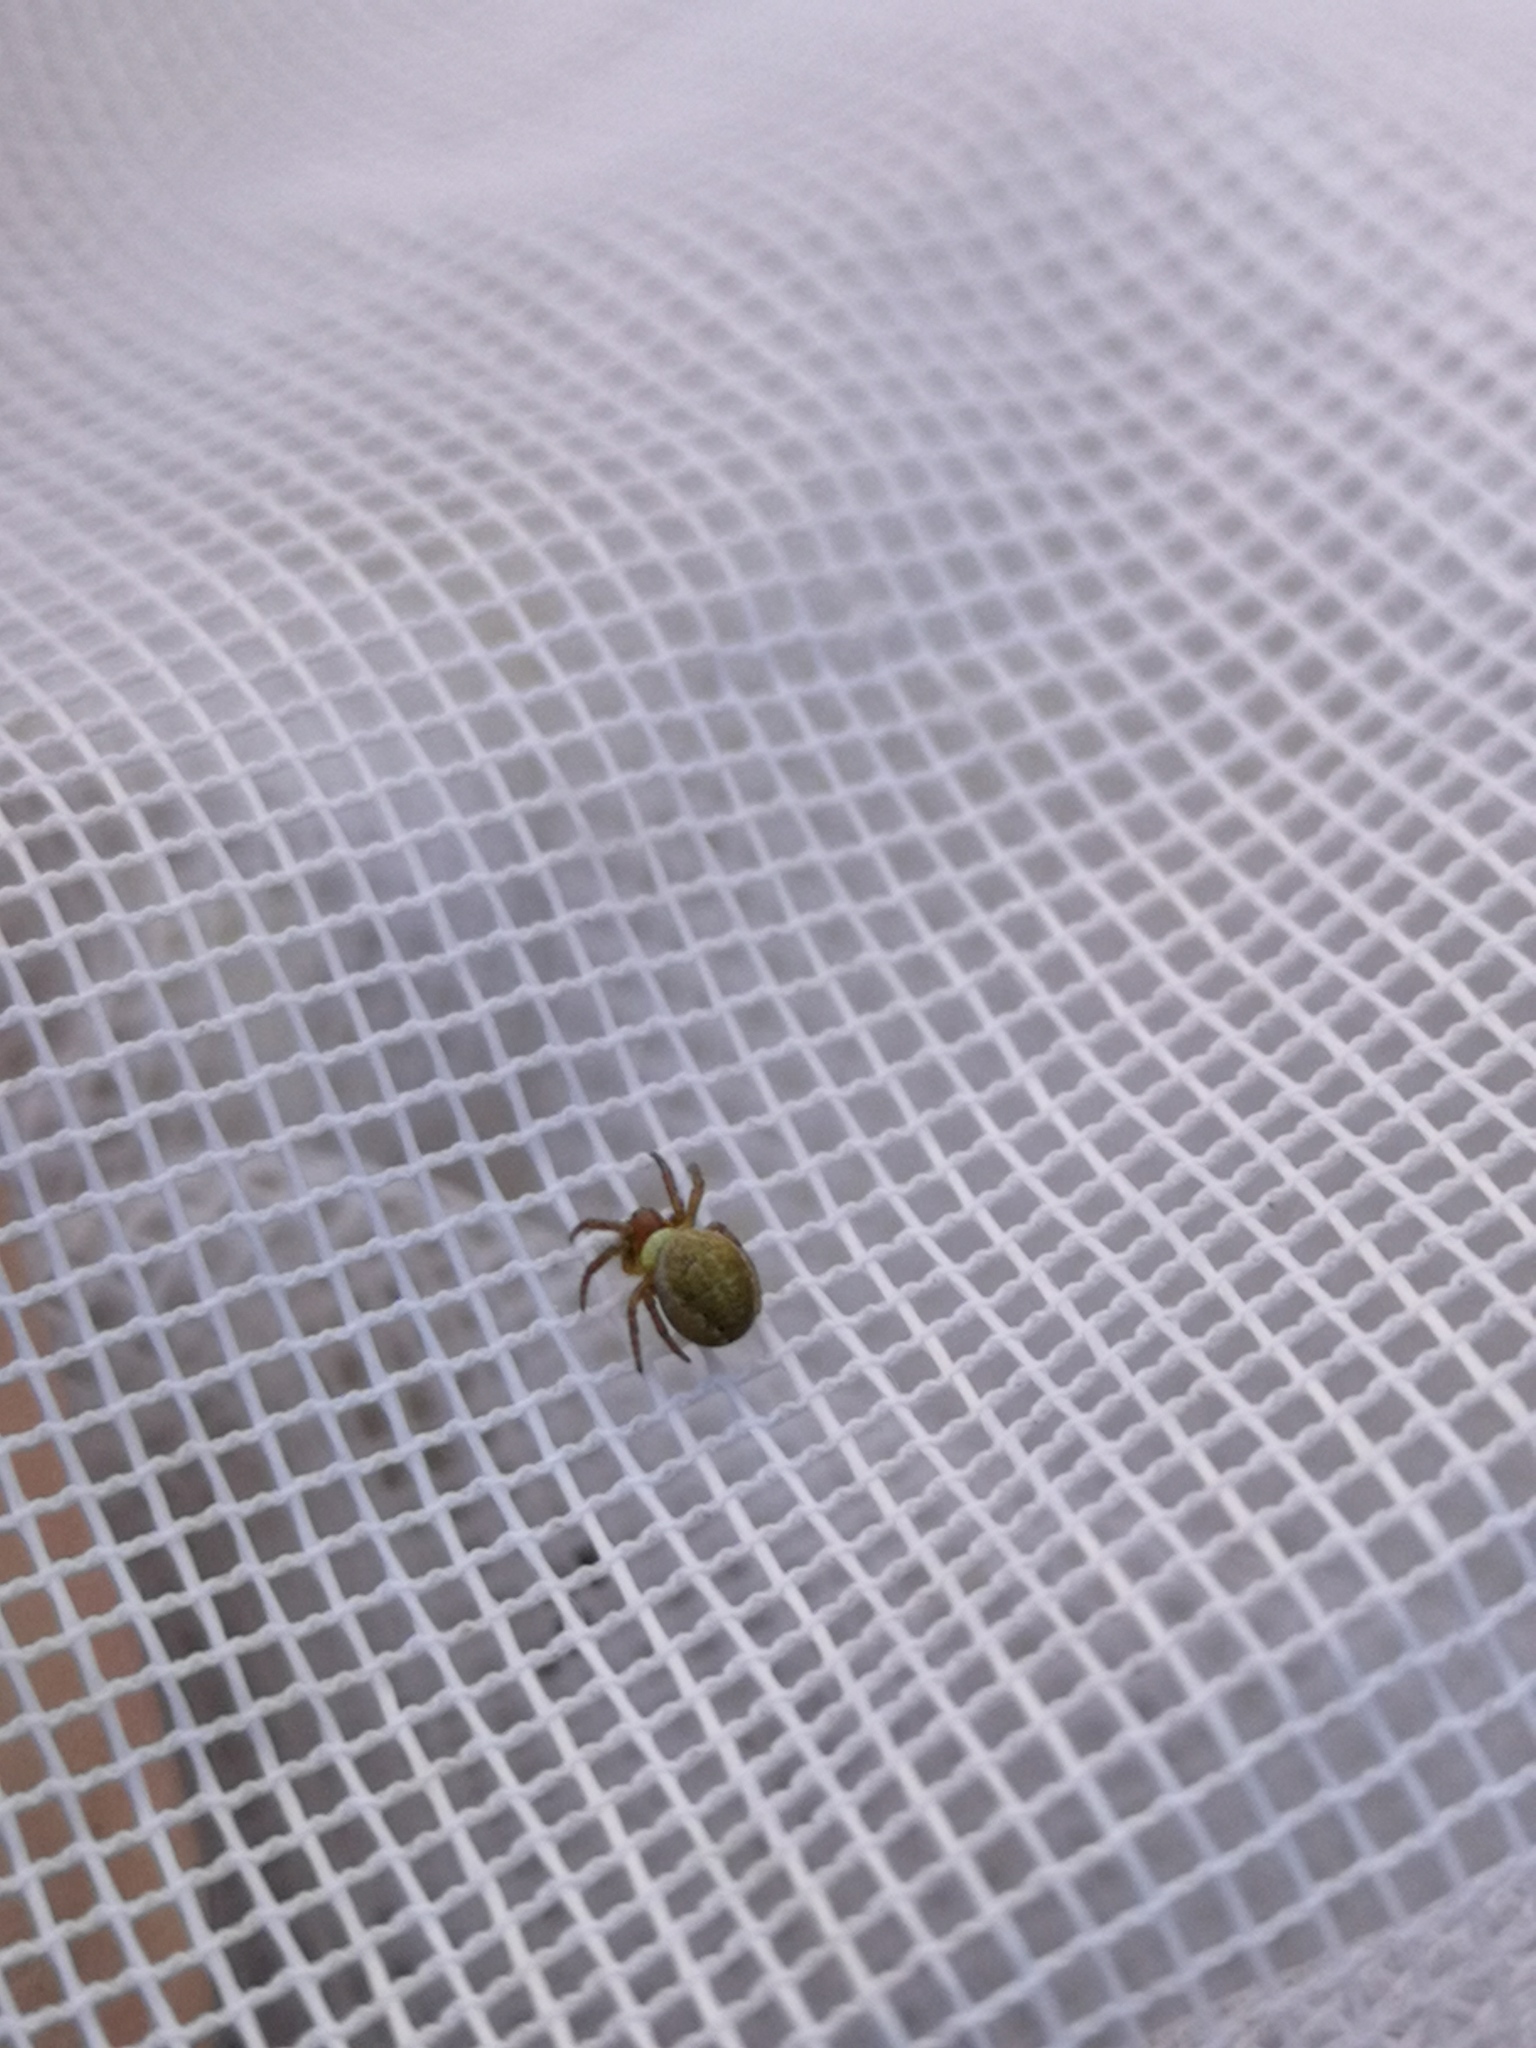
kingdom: Animalia
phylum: Arthropoda
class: Arachnida
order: Araneae
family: Araneidae
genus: Araniella
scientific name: Araniella
